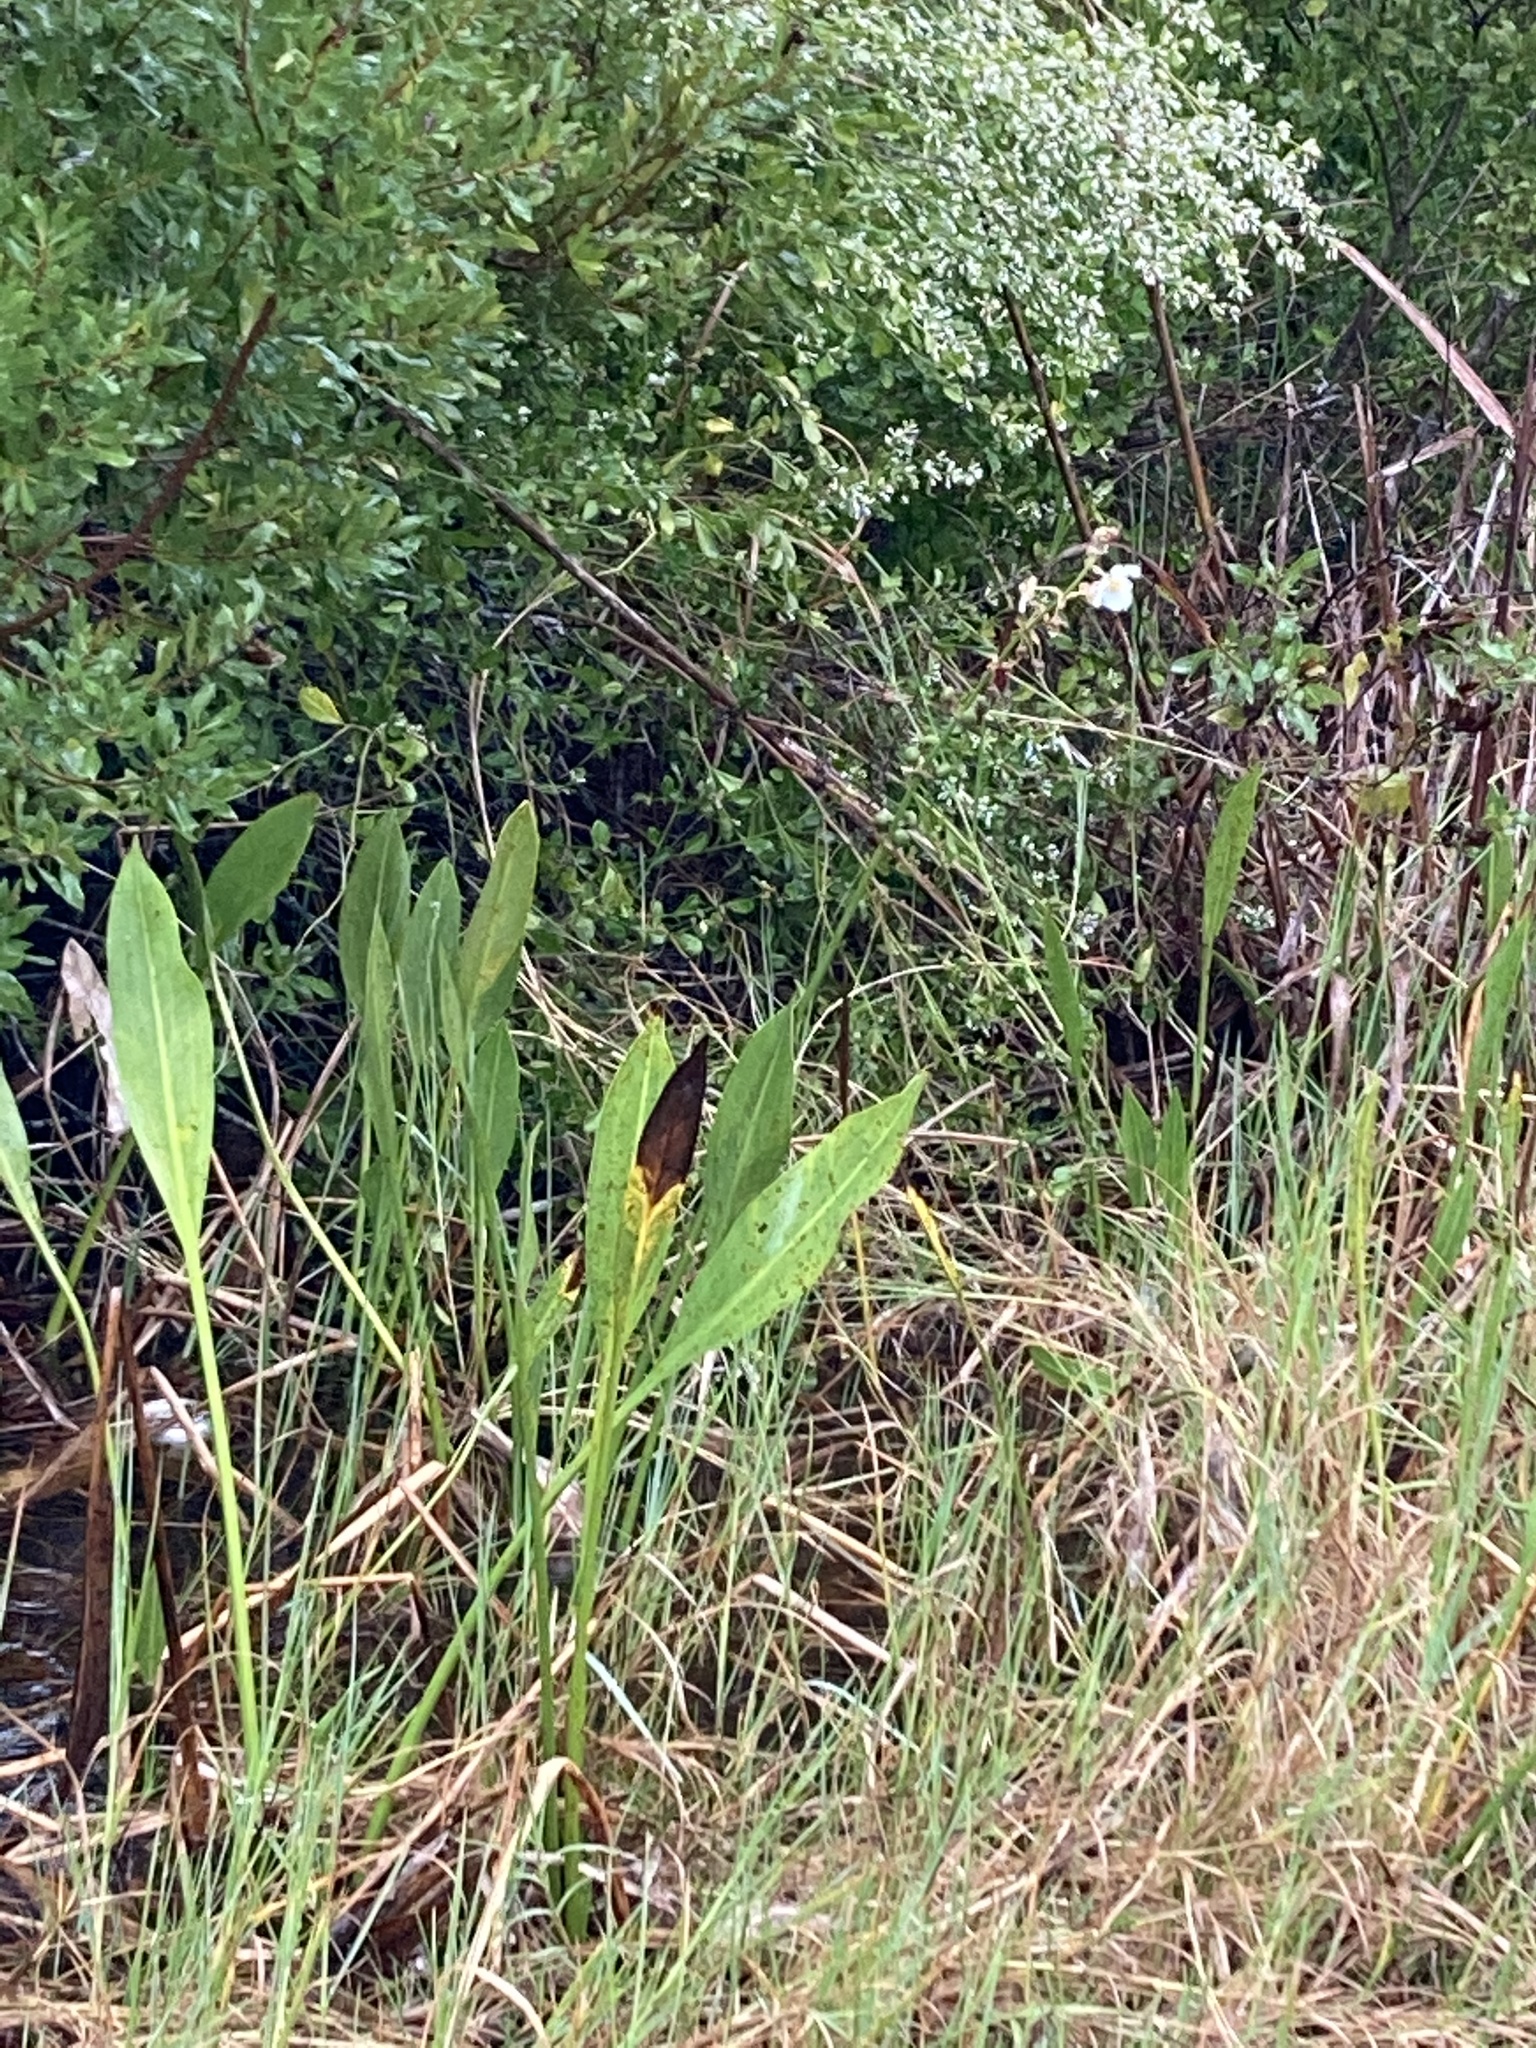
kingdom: Plantae
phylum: Tracheophyta
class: Liliopsida
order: Alismatales
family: Alismataceae
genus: Sagittaria
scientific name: Sagittaria lancifolia
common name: Lance-leaf arrowhead
